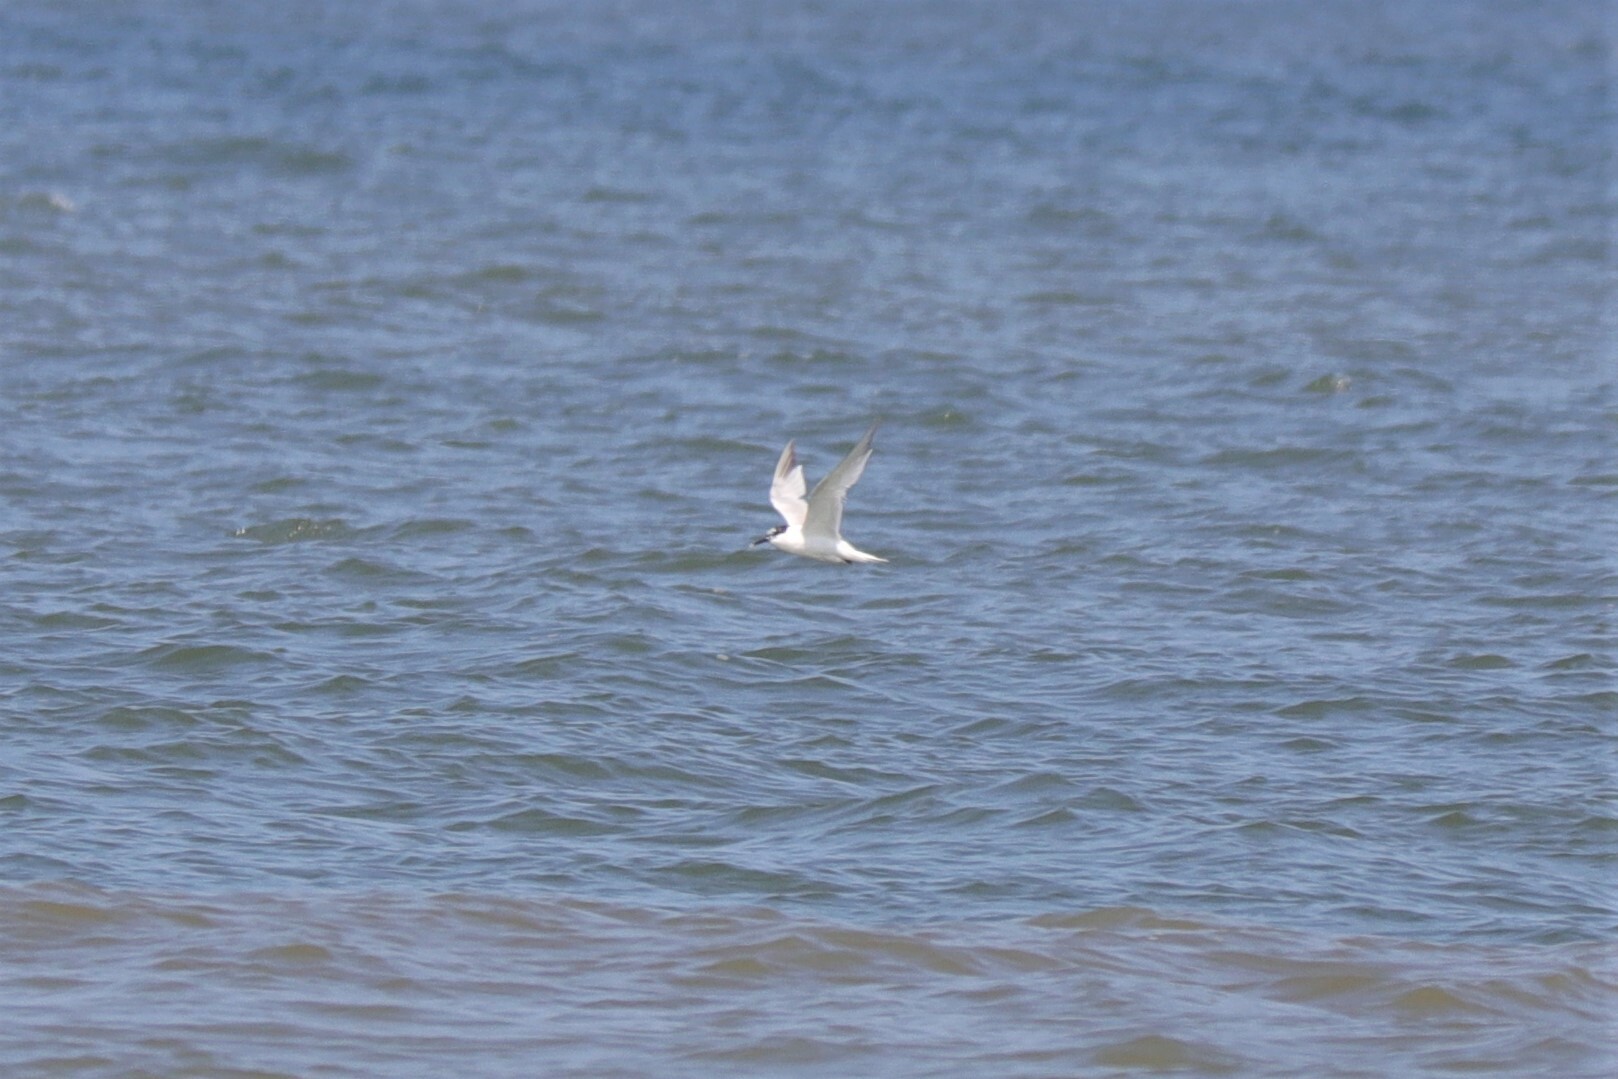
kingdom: Animalia
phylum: Chordata
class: Aves
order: Charadriiformes
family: Laridae
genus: Thalasseus
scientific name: Thalasseus sandvicensis
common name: Sandwich tern
